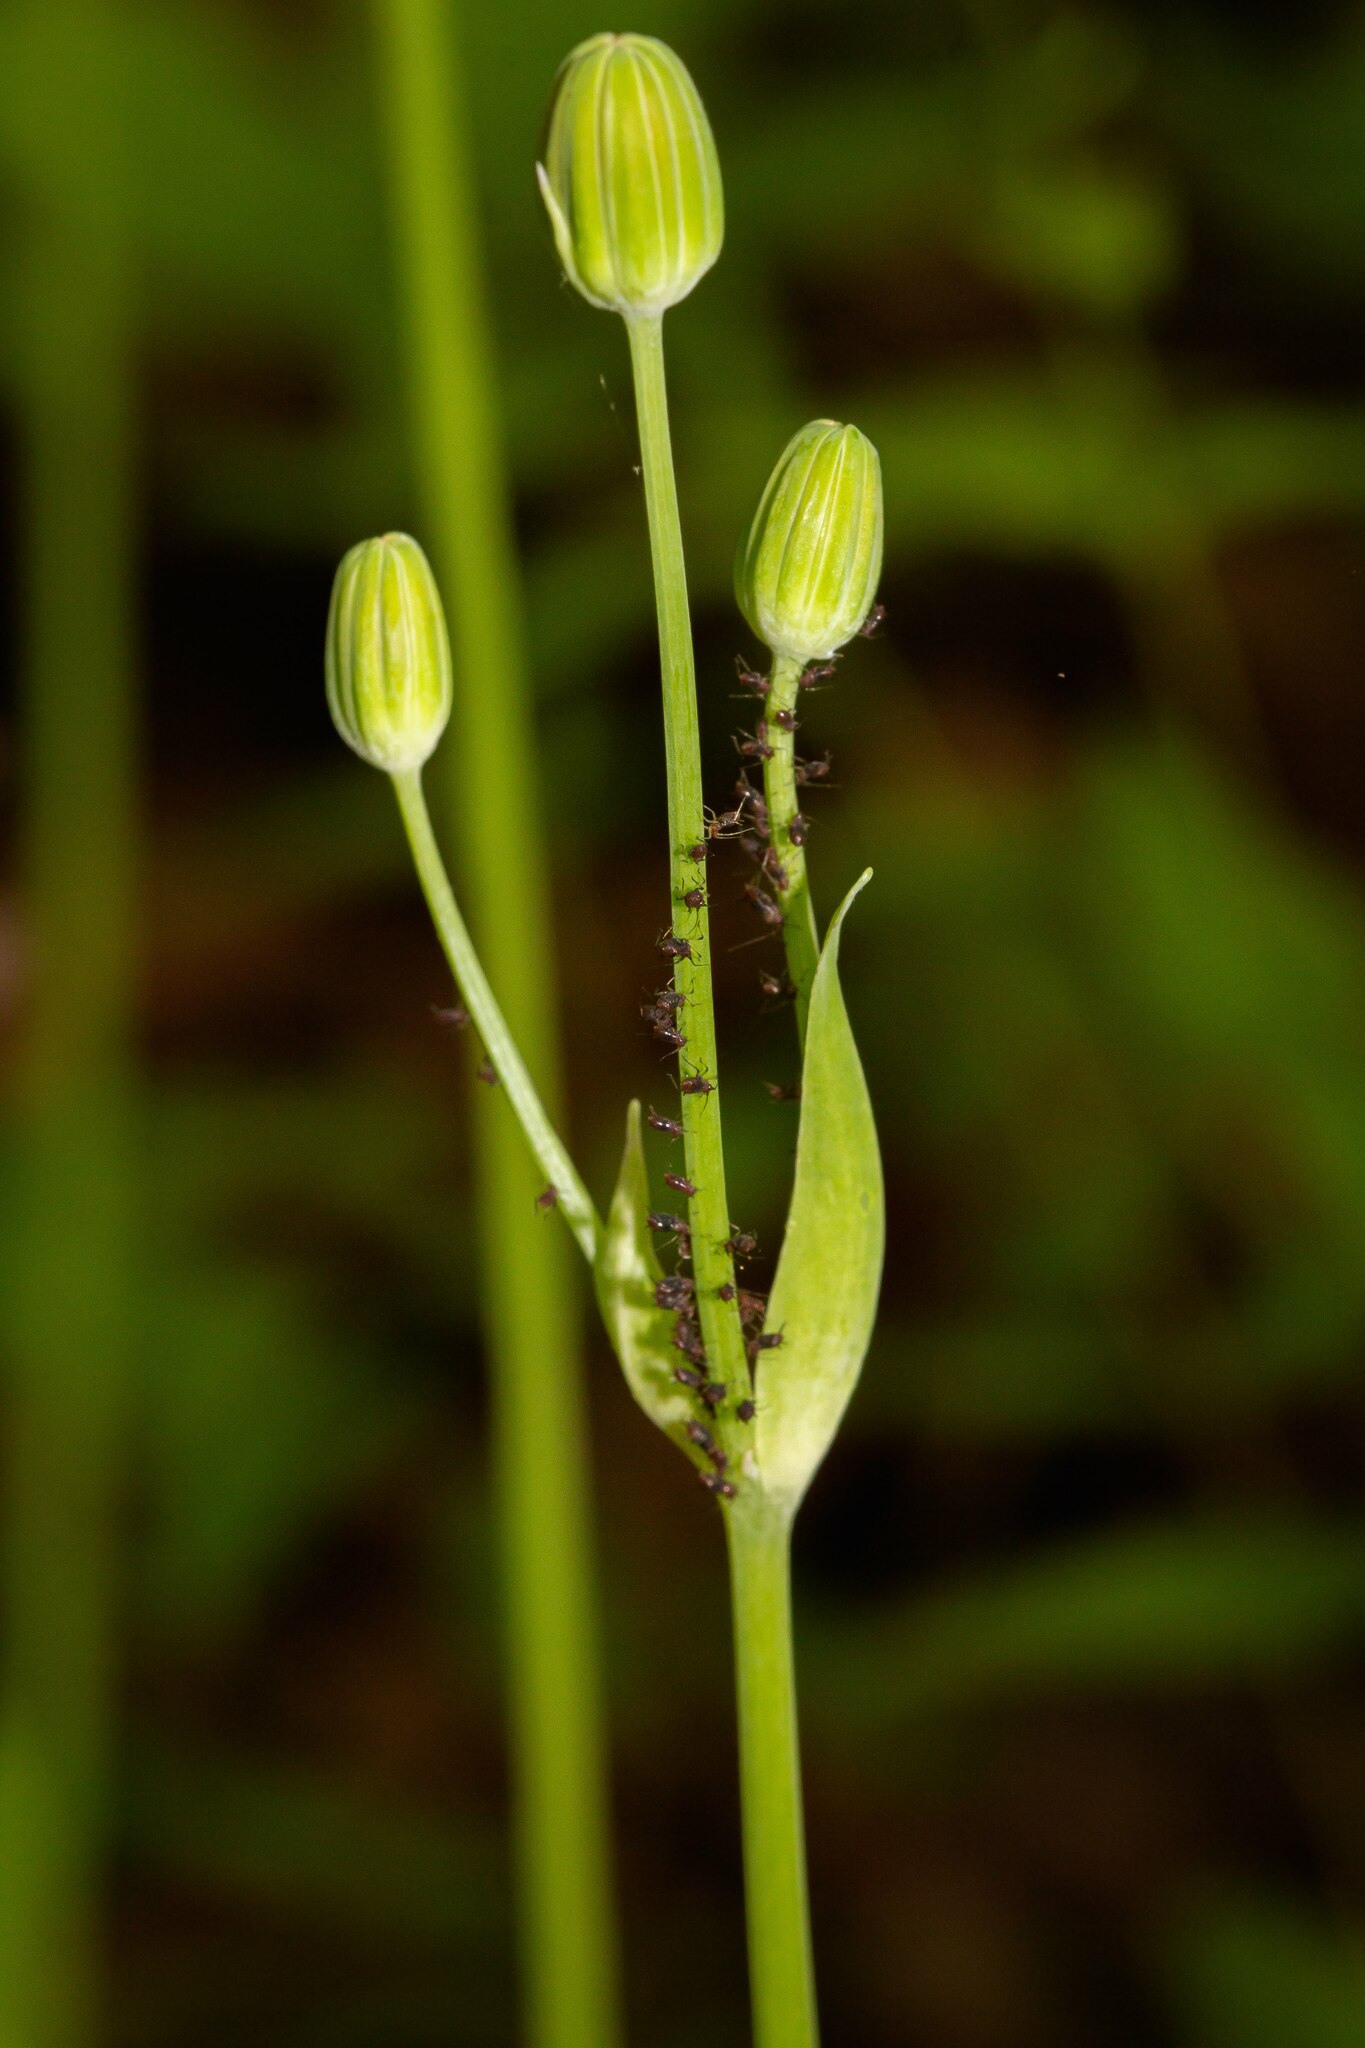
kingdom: Plantae
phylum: Tracheophyta
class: Magnoliopsida
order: Asterales
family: Asteraceae
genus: Krigia
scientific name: Krigia biflora
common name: Orange dwarf-dandelion
